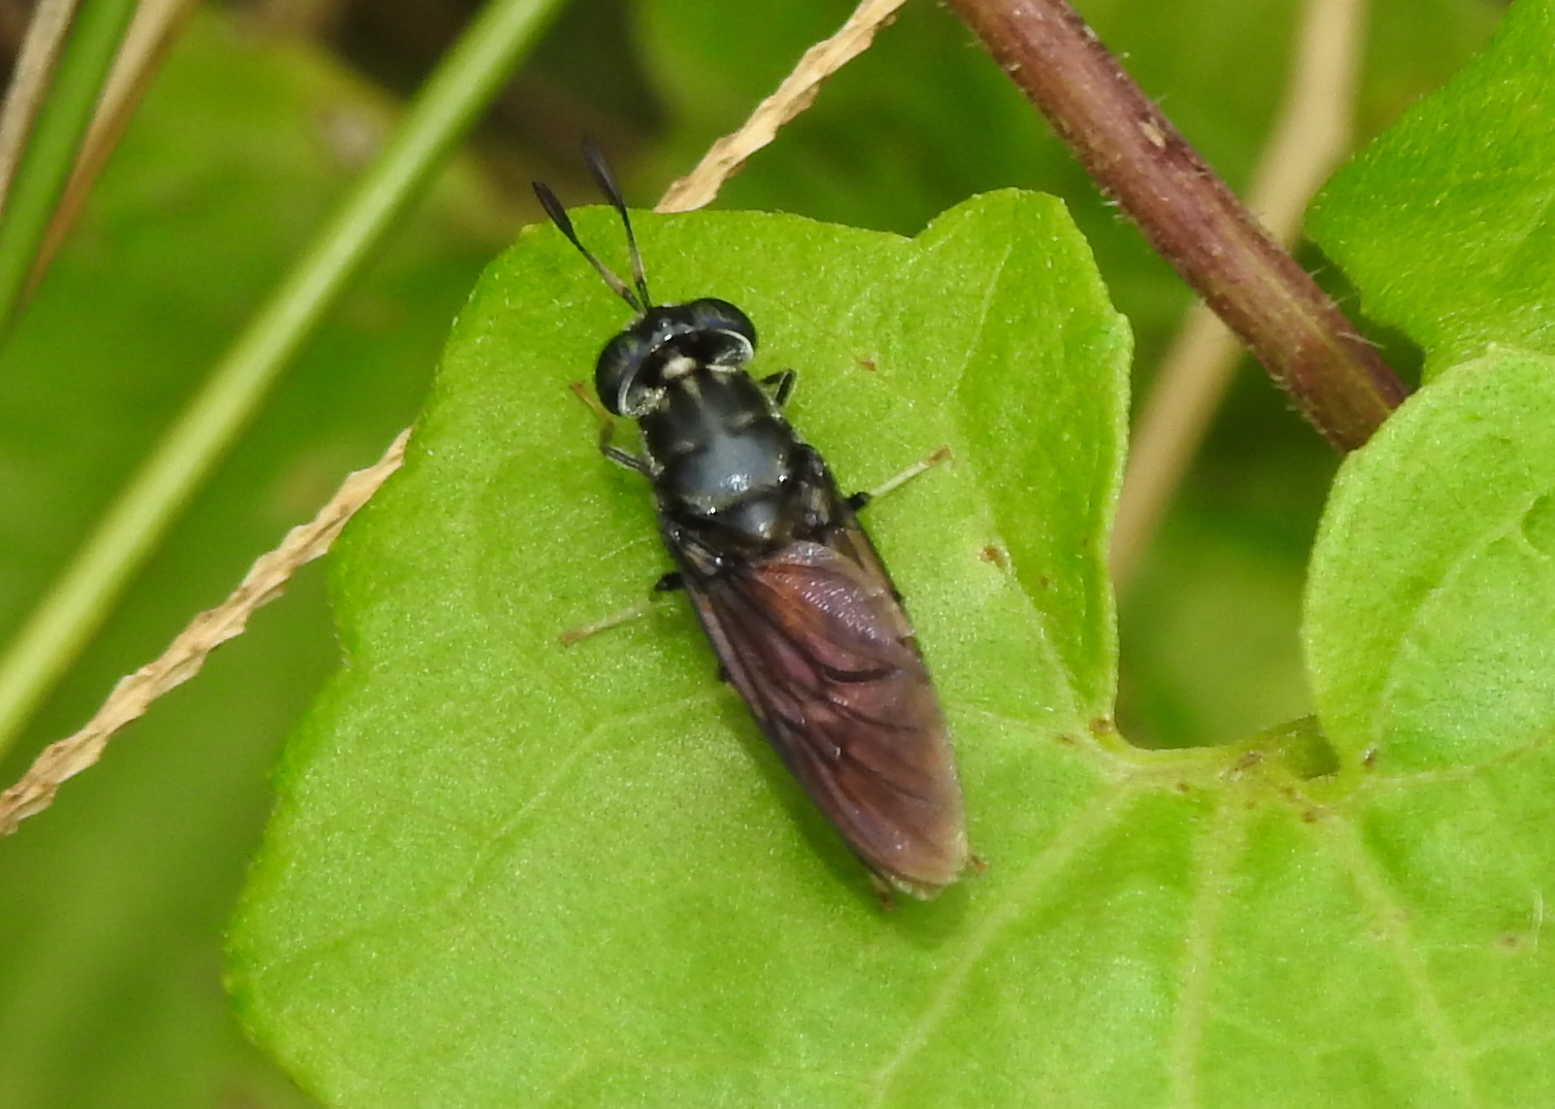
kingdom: Animalia
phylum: Arthropoda
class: Insecta
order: Diptera
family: Stratiomyidae
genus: Hermetia
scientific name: Hermetia illucens
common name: Black soldier fly
